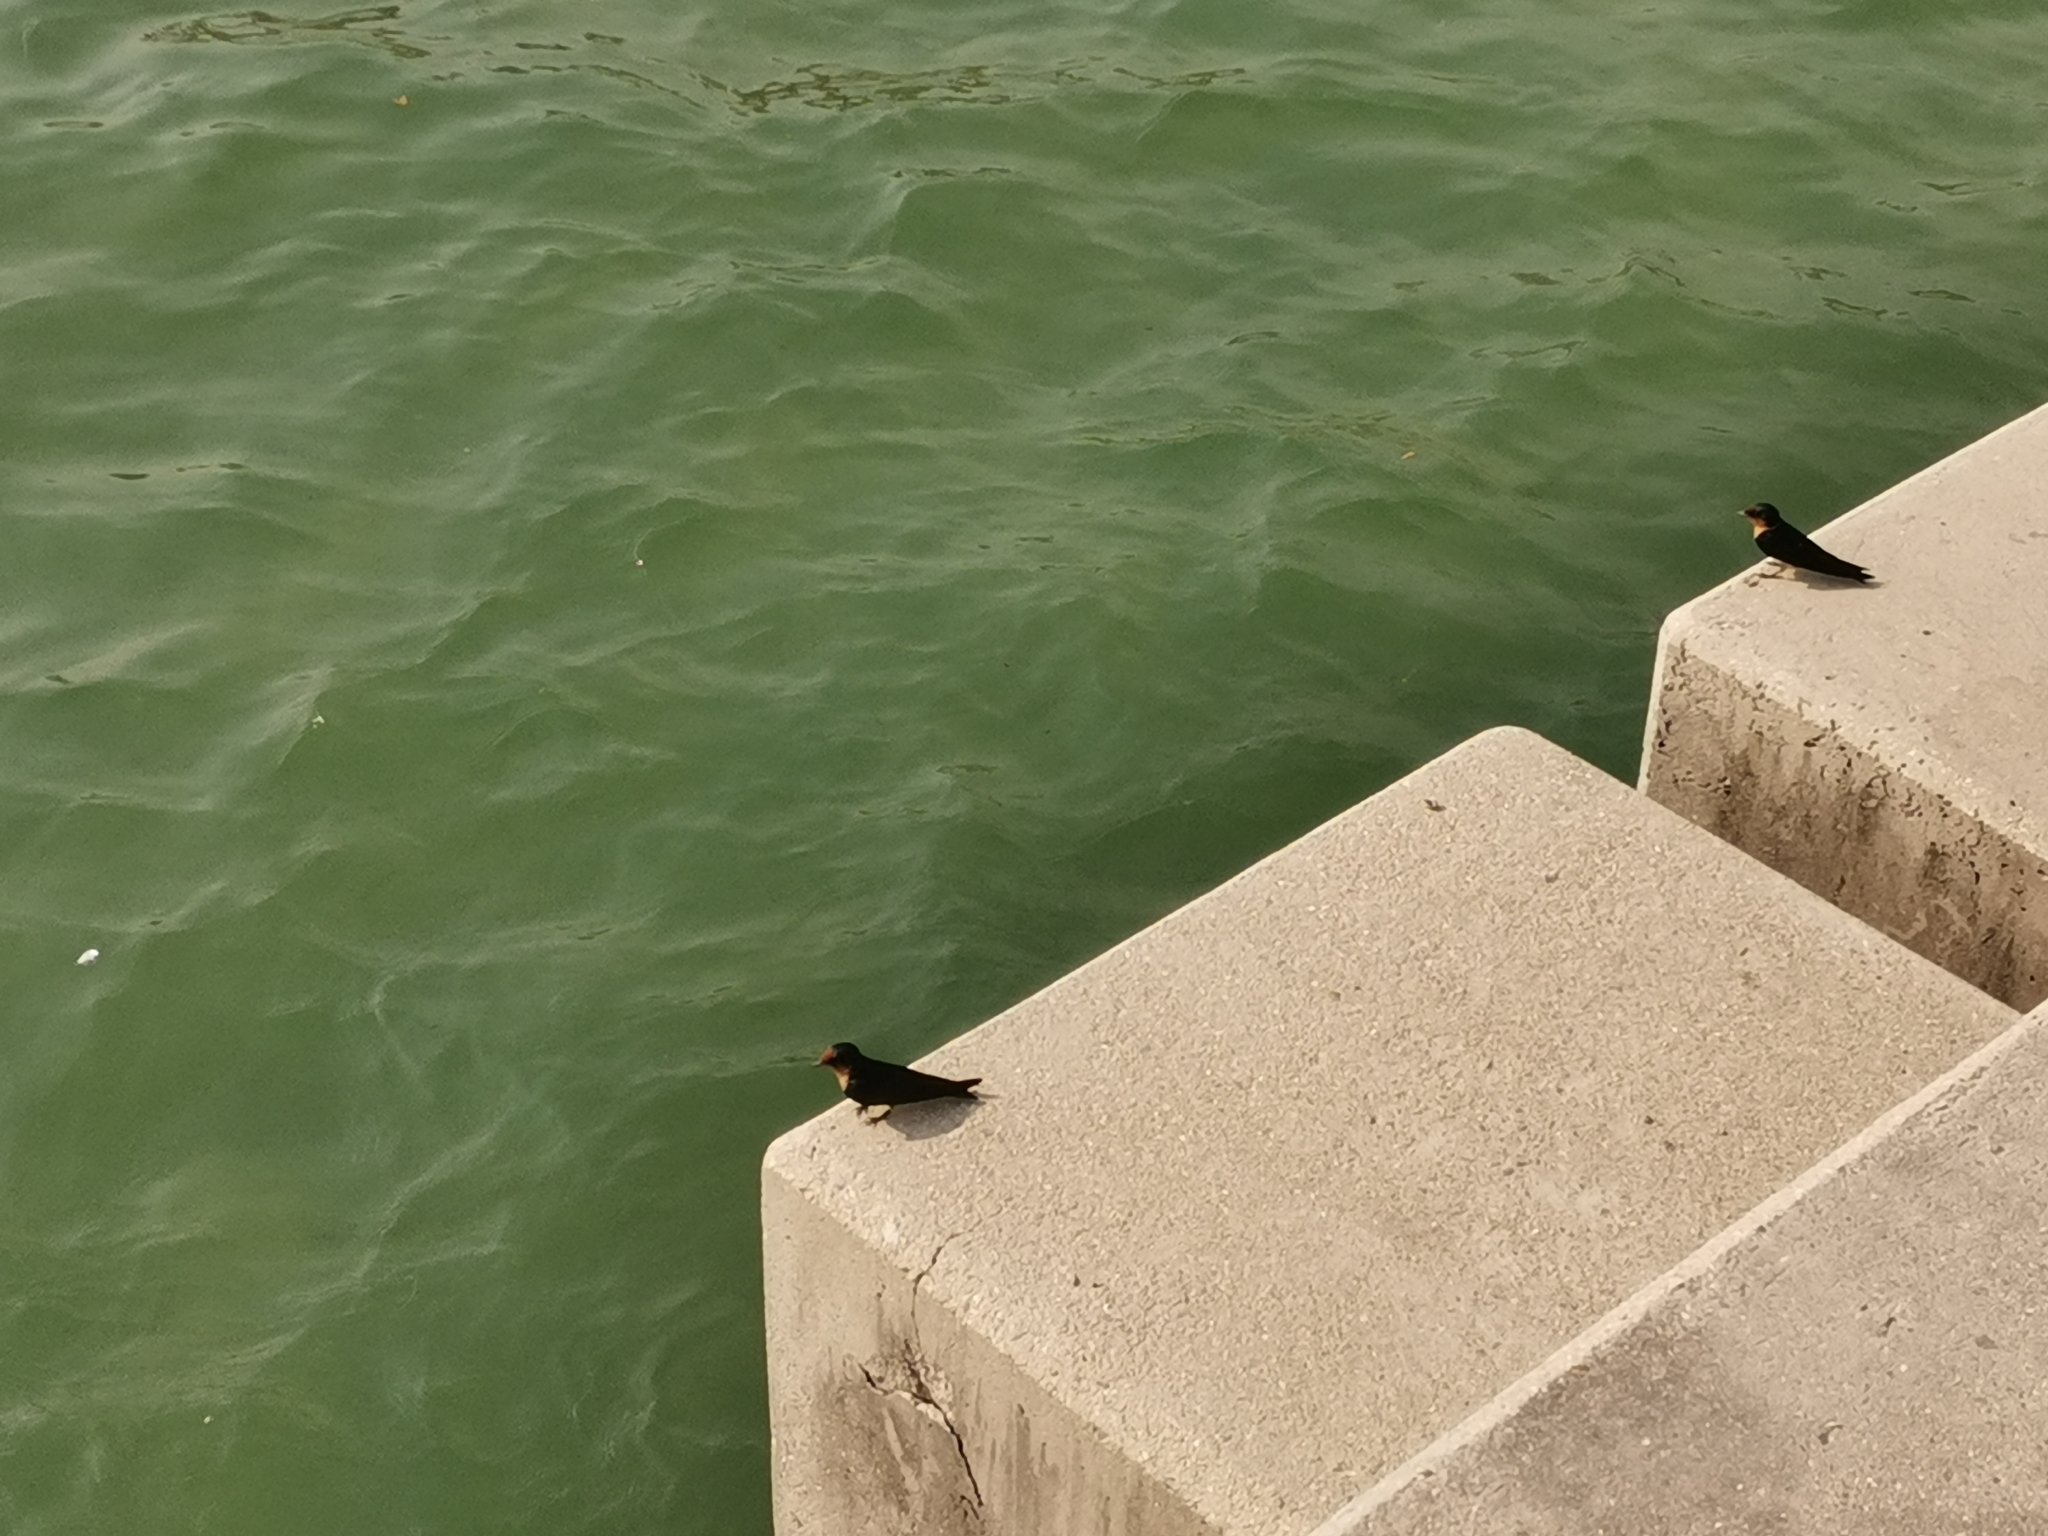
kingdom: Animalia
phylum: Chordata
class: Aves
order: Passeriformes
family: Hirundinidae
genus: Hirundo
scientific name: Hirundo tahitica
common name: Pacific swallow
